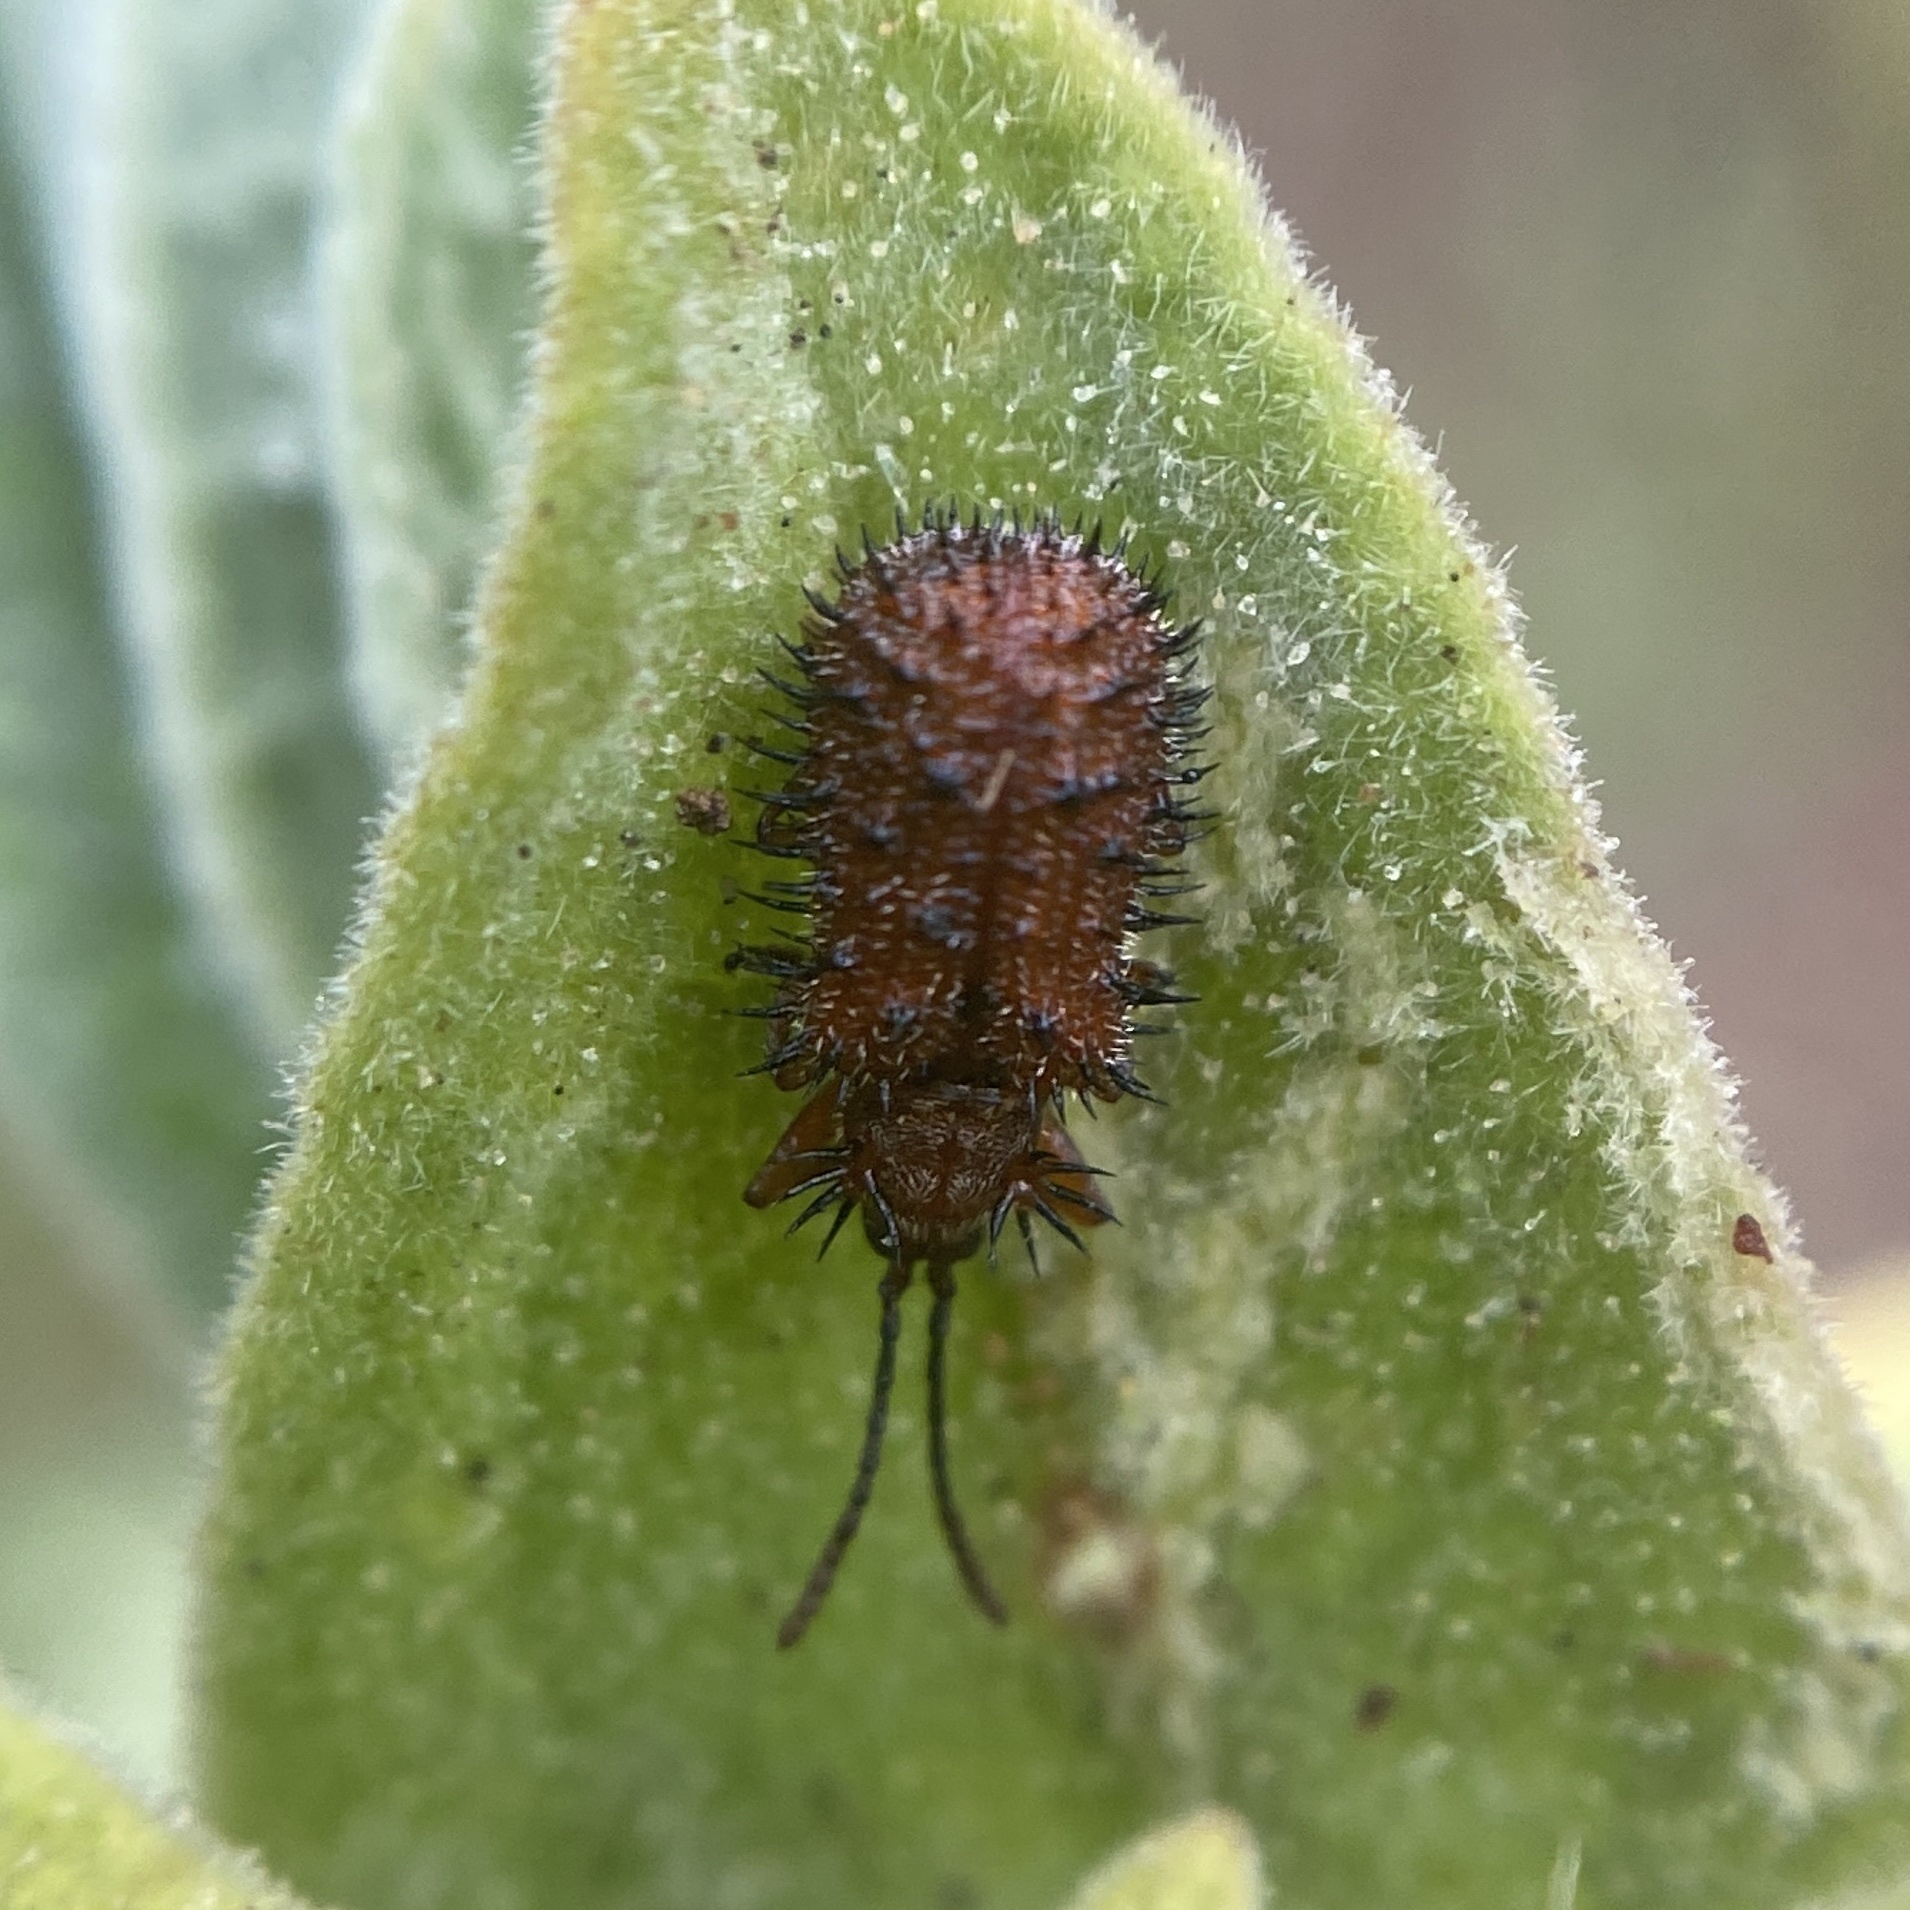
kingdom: Animalia
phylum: Arthropoda
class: Insecta
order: Coleoptera
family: Chrysomelidae
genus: Dicladispa
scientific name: Dicladispa testacea
